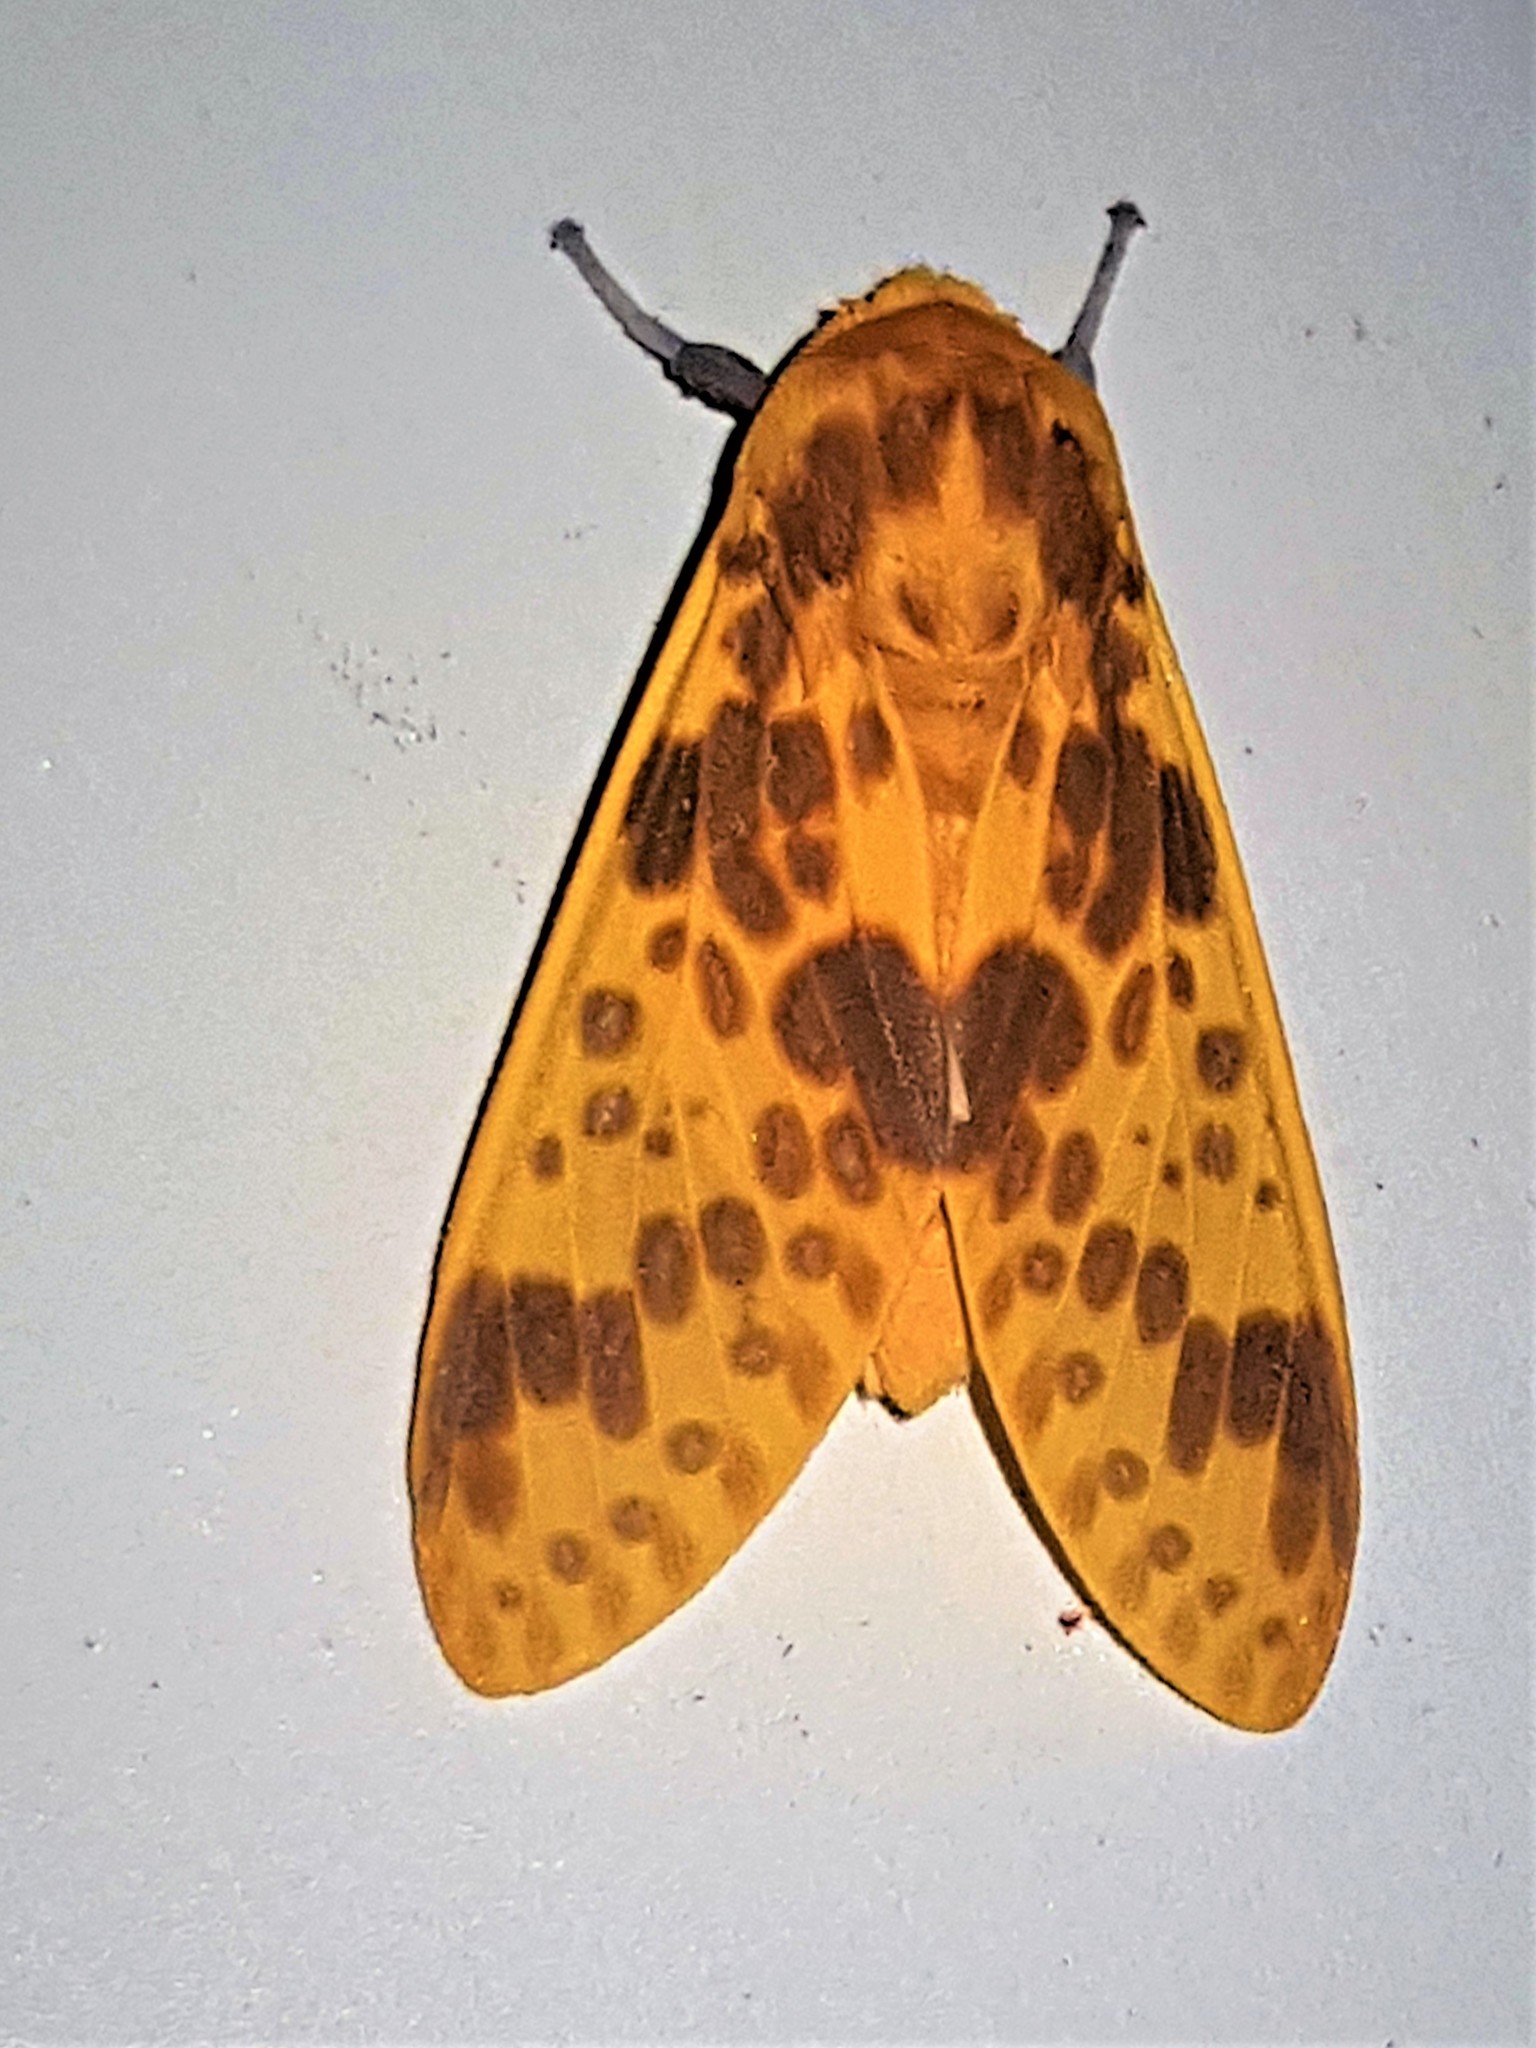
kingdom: Animalia
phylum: Arthropoda
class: Insecta
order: Lepidoptera
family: Erebidae
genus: Symphlebia
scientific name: Symphlebia neja
